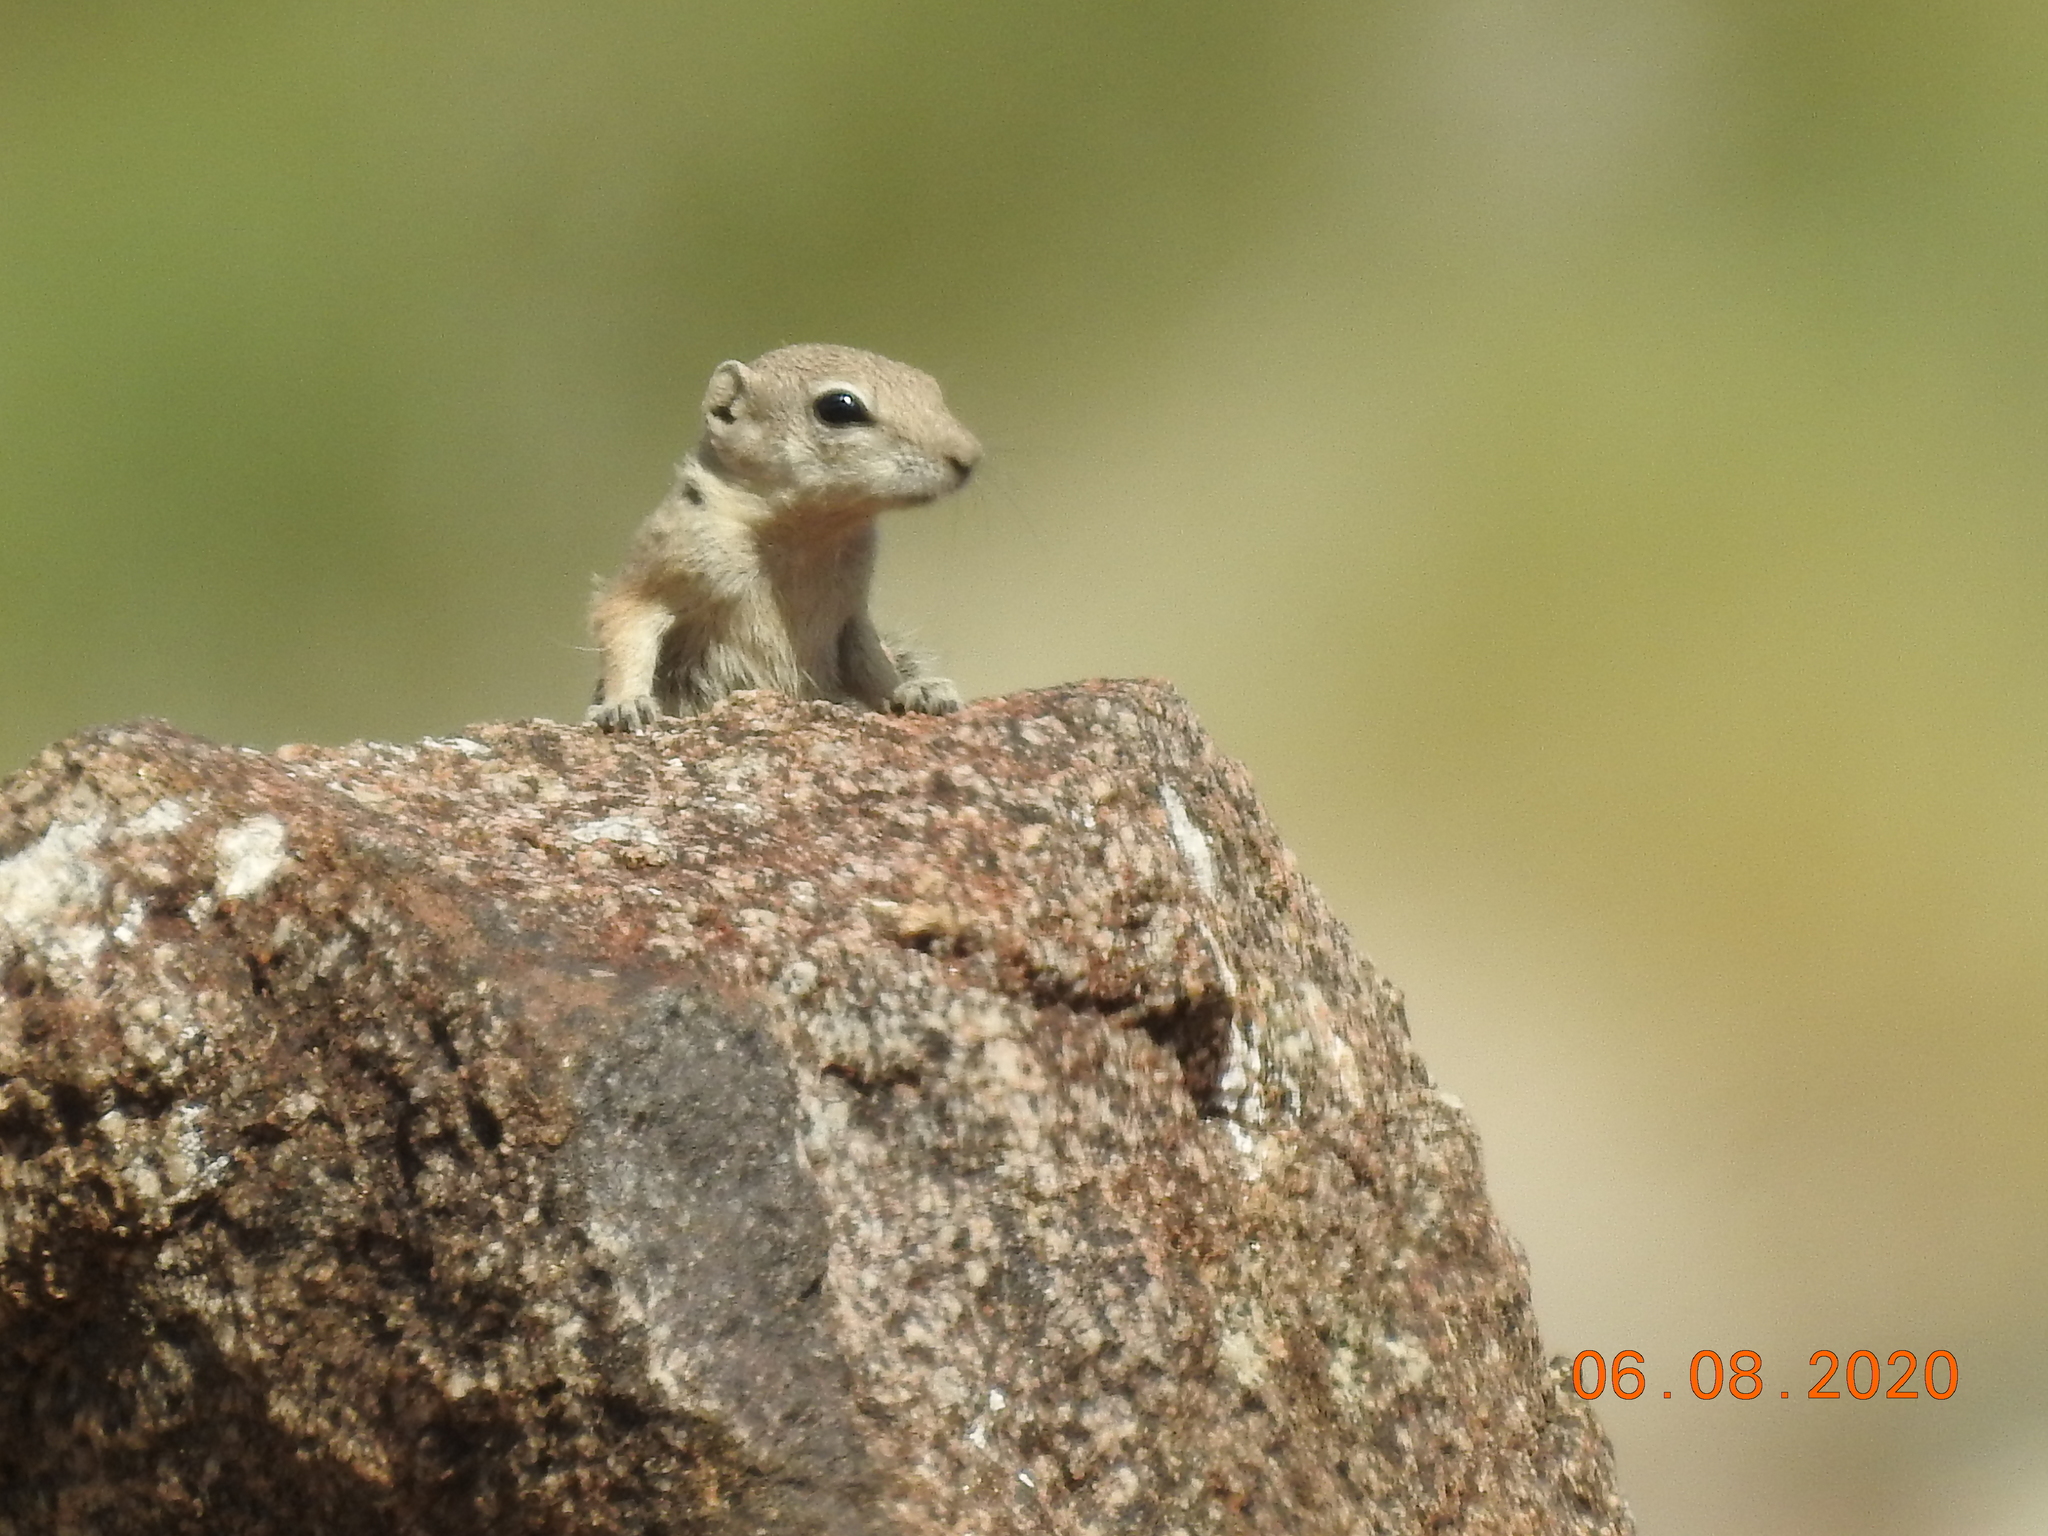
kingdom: Animalia
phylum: Chordata
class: Mammalia
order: Rodentia
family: Sciuridae
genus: Ammospermophilus
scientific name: Ammospermophilus leucurus
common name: White-tailed antelope squirrel
